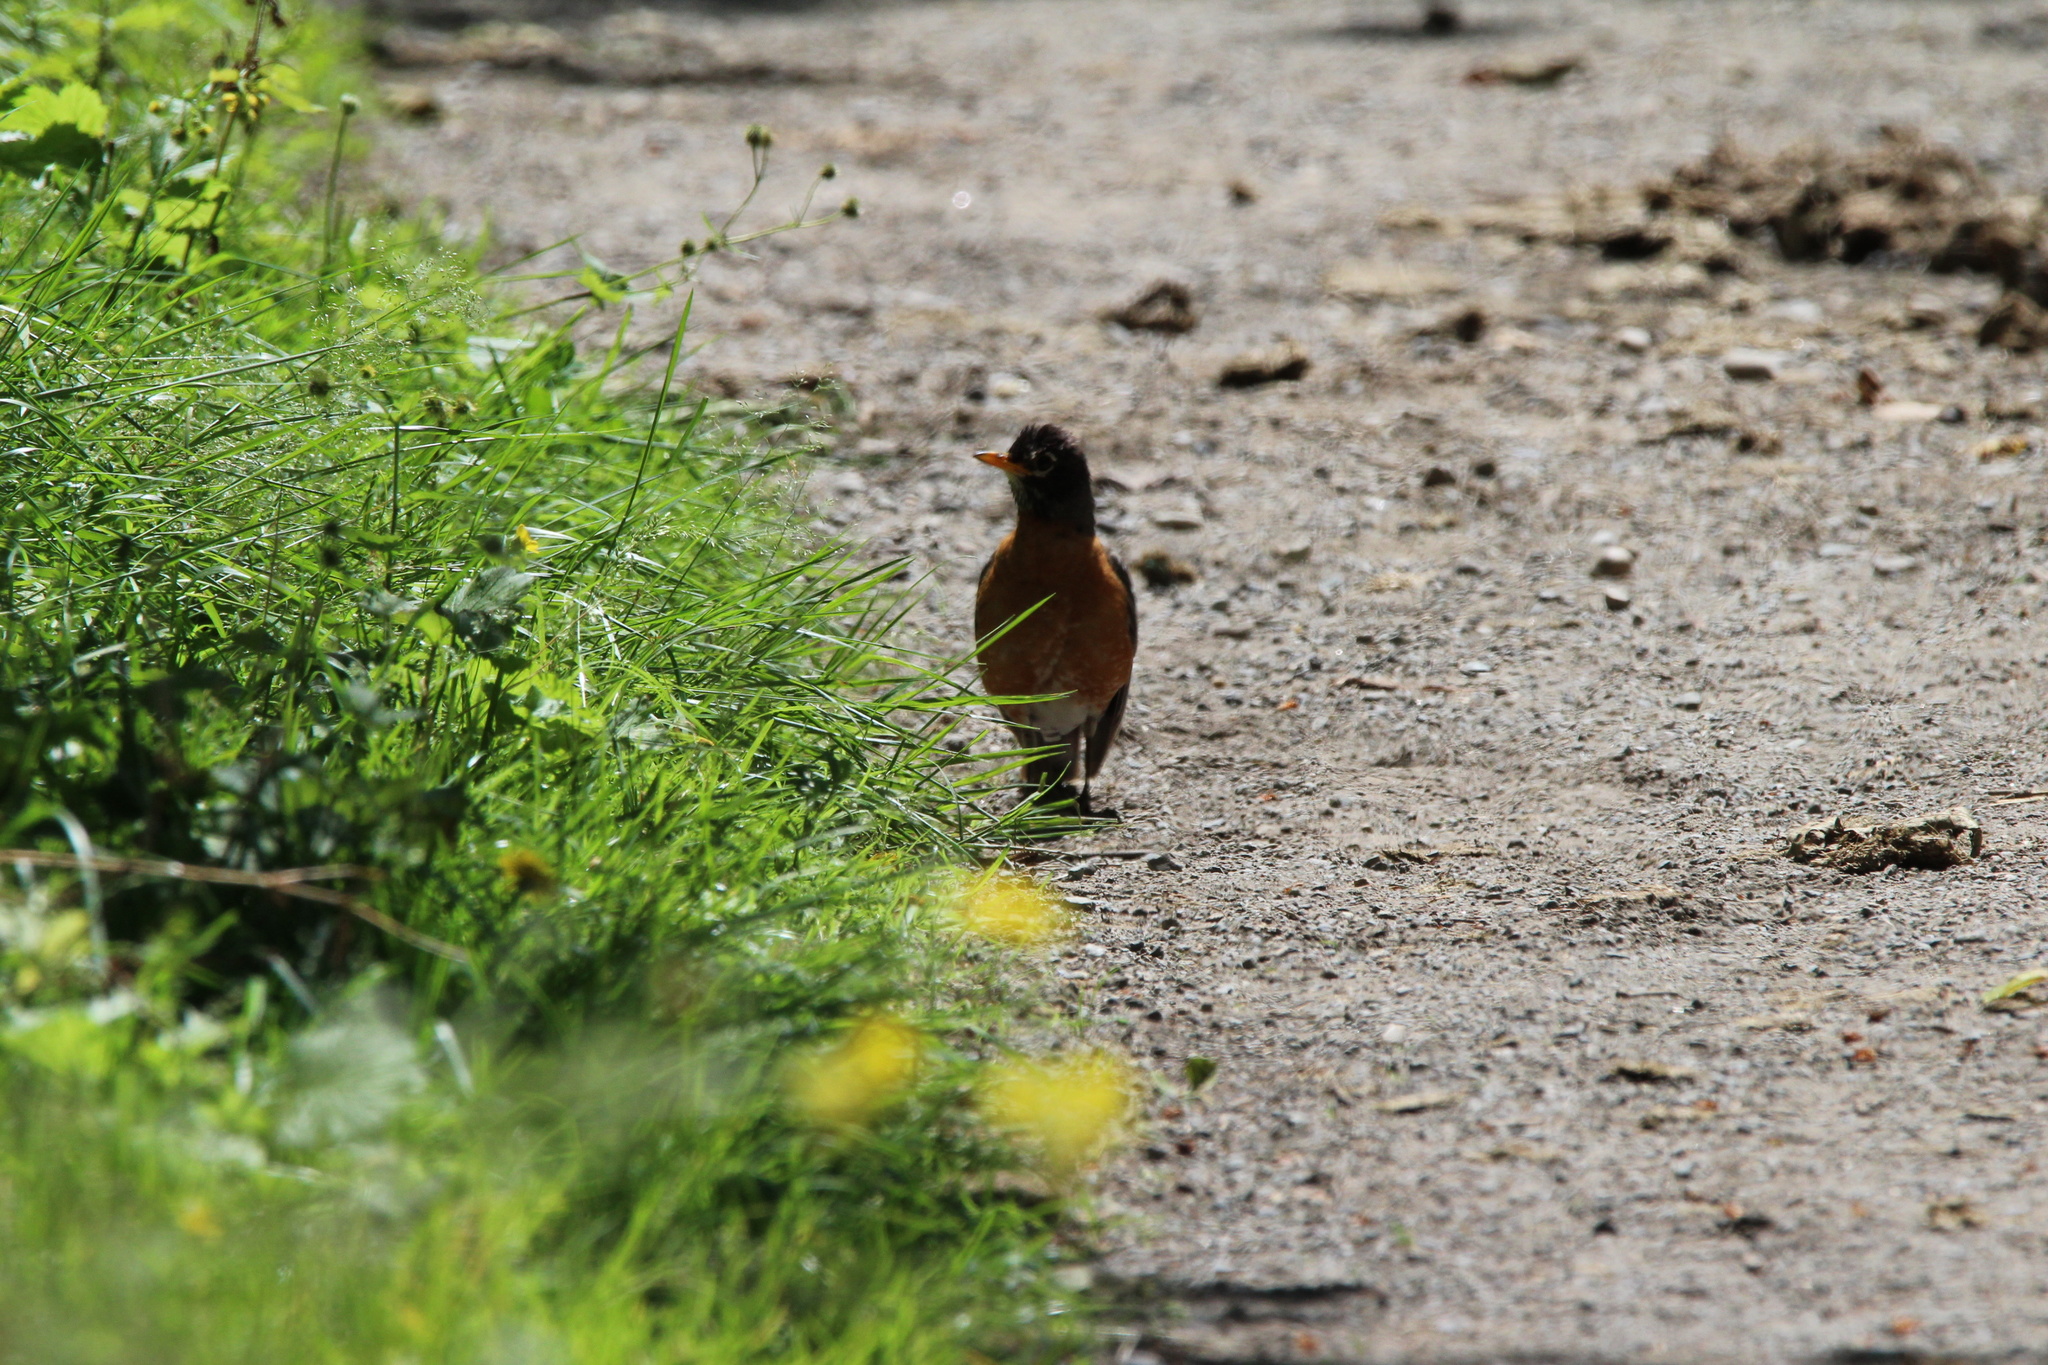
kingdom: Animalia
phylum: Chordata
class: Aves
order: Passeriformes
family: Turdidae
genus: Turdus
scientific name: Turdus migratorius
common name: American robin
